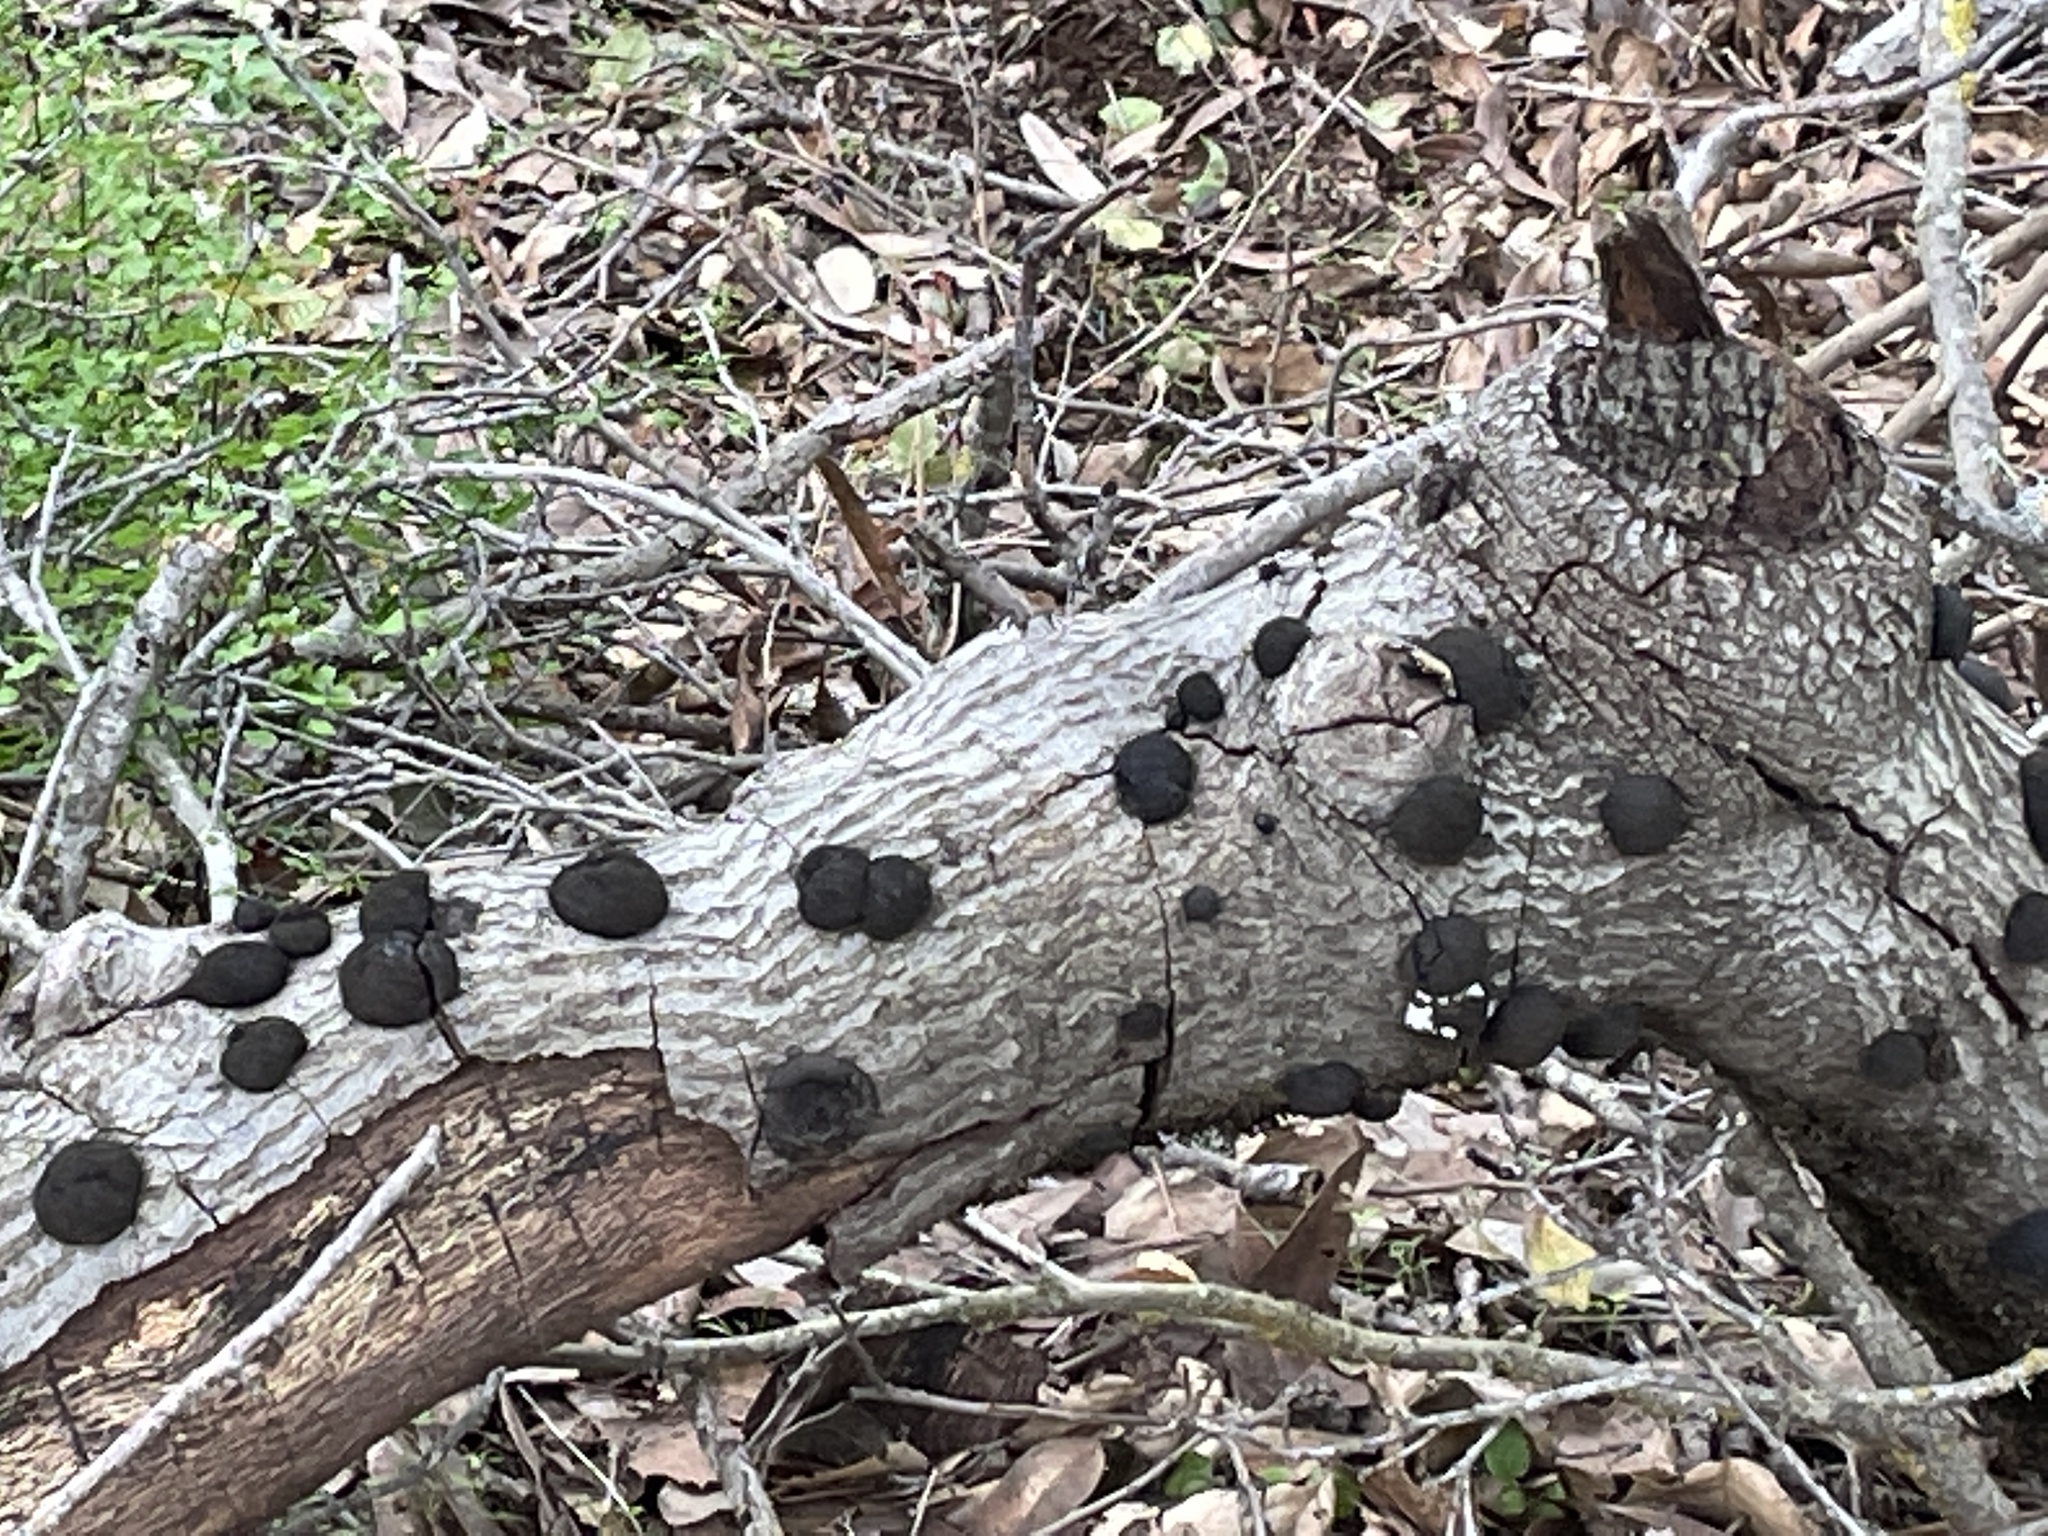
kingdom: Fungi
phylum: Ascomycota
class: Sordariomycetes
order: Xylariales
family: Hypoxylaceae
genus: Annulohypoxylon
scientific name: Annulohypoxylon thouarsianum
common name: Cramp balls
